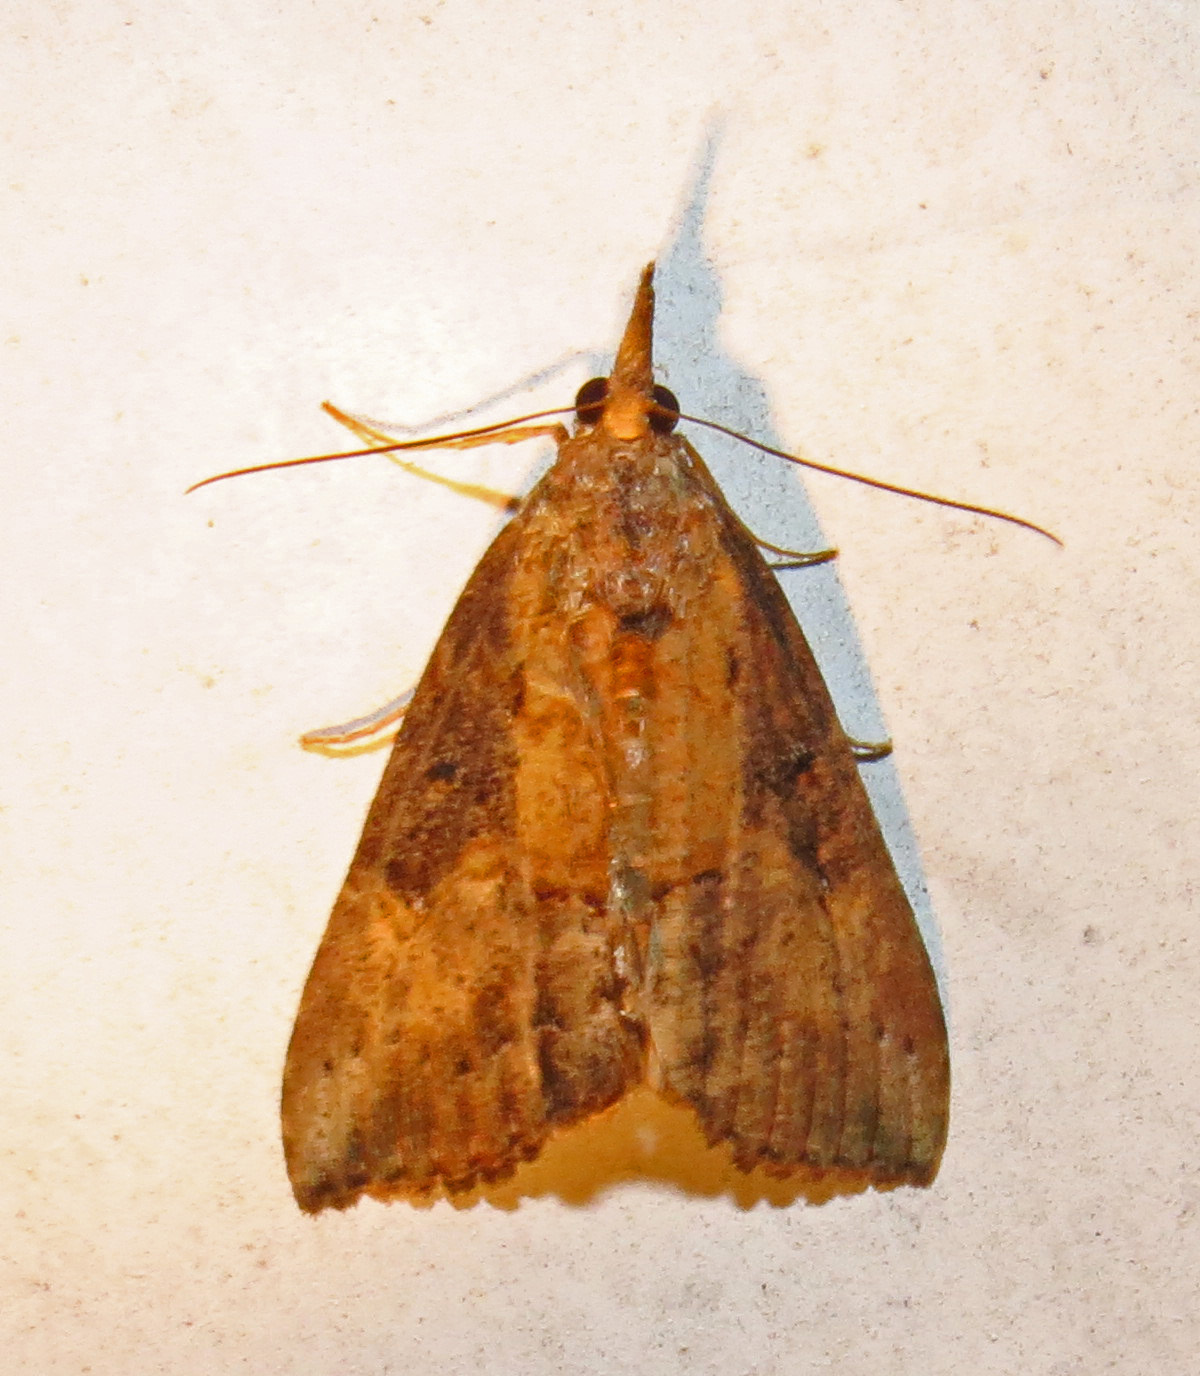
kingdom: Animalia
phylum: Arthropoda
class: Insecta
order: Lepidoptera
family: Erebidae
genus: Hypena
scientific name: Hypena scabra
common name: Green cloverworm
